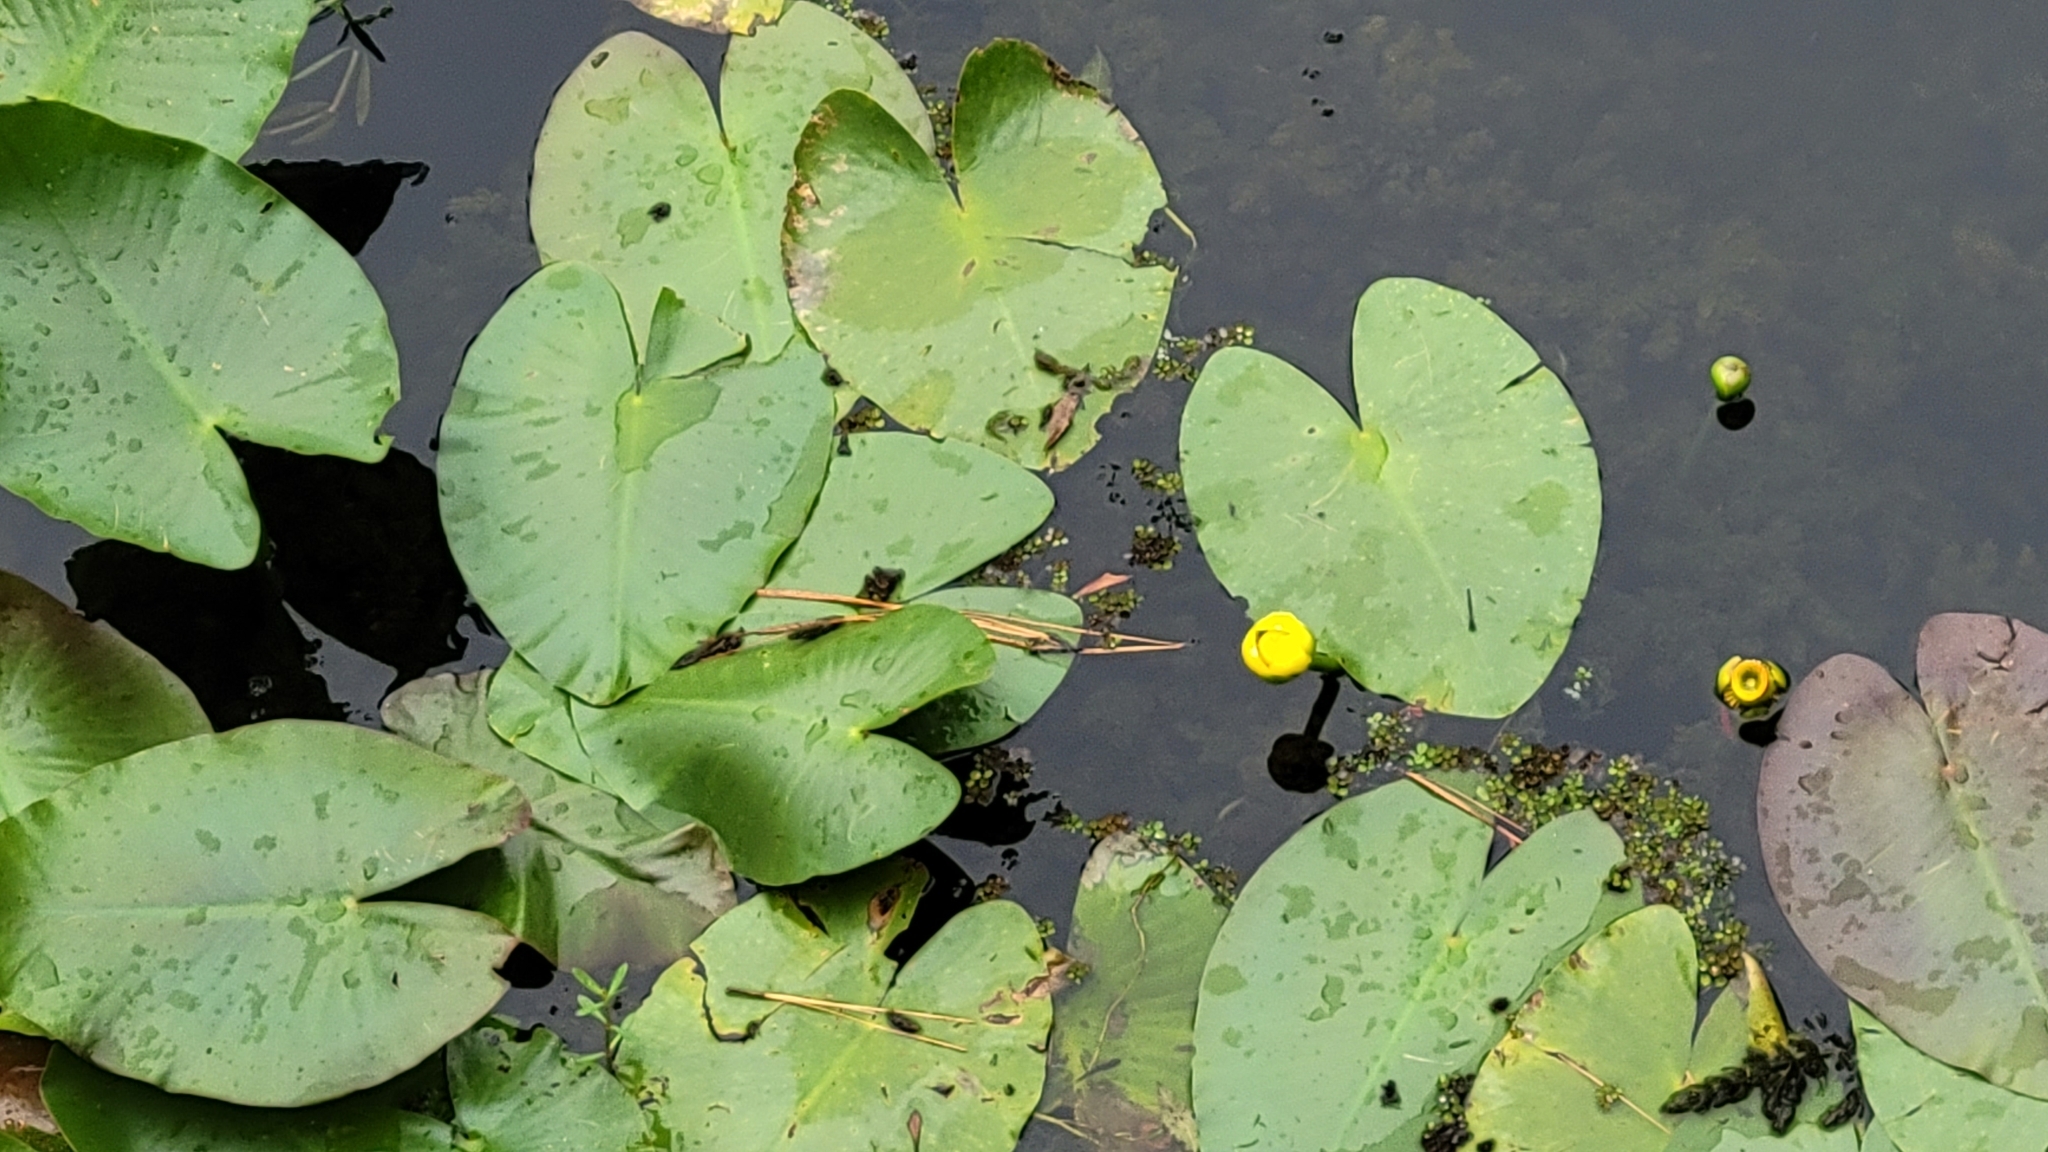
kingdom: Plantae
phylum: Tracheophyta
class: Magnoliopsida
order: Nymphaeales
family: Nymphaeaceae
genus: Nuphar
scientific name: Nuphar advena
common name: Spatter-dock
